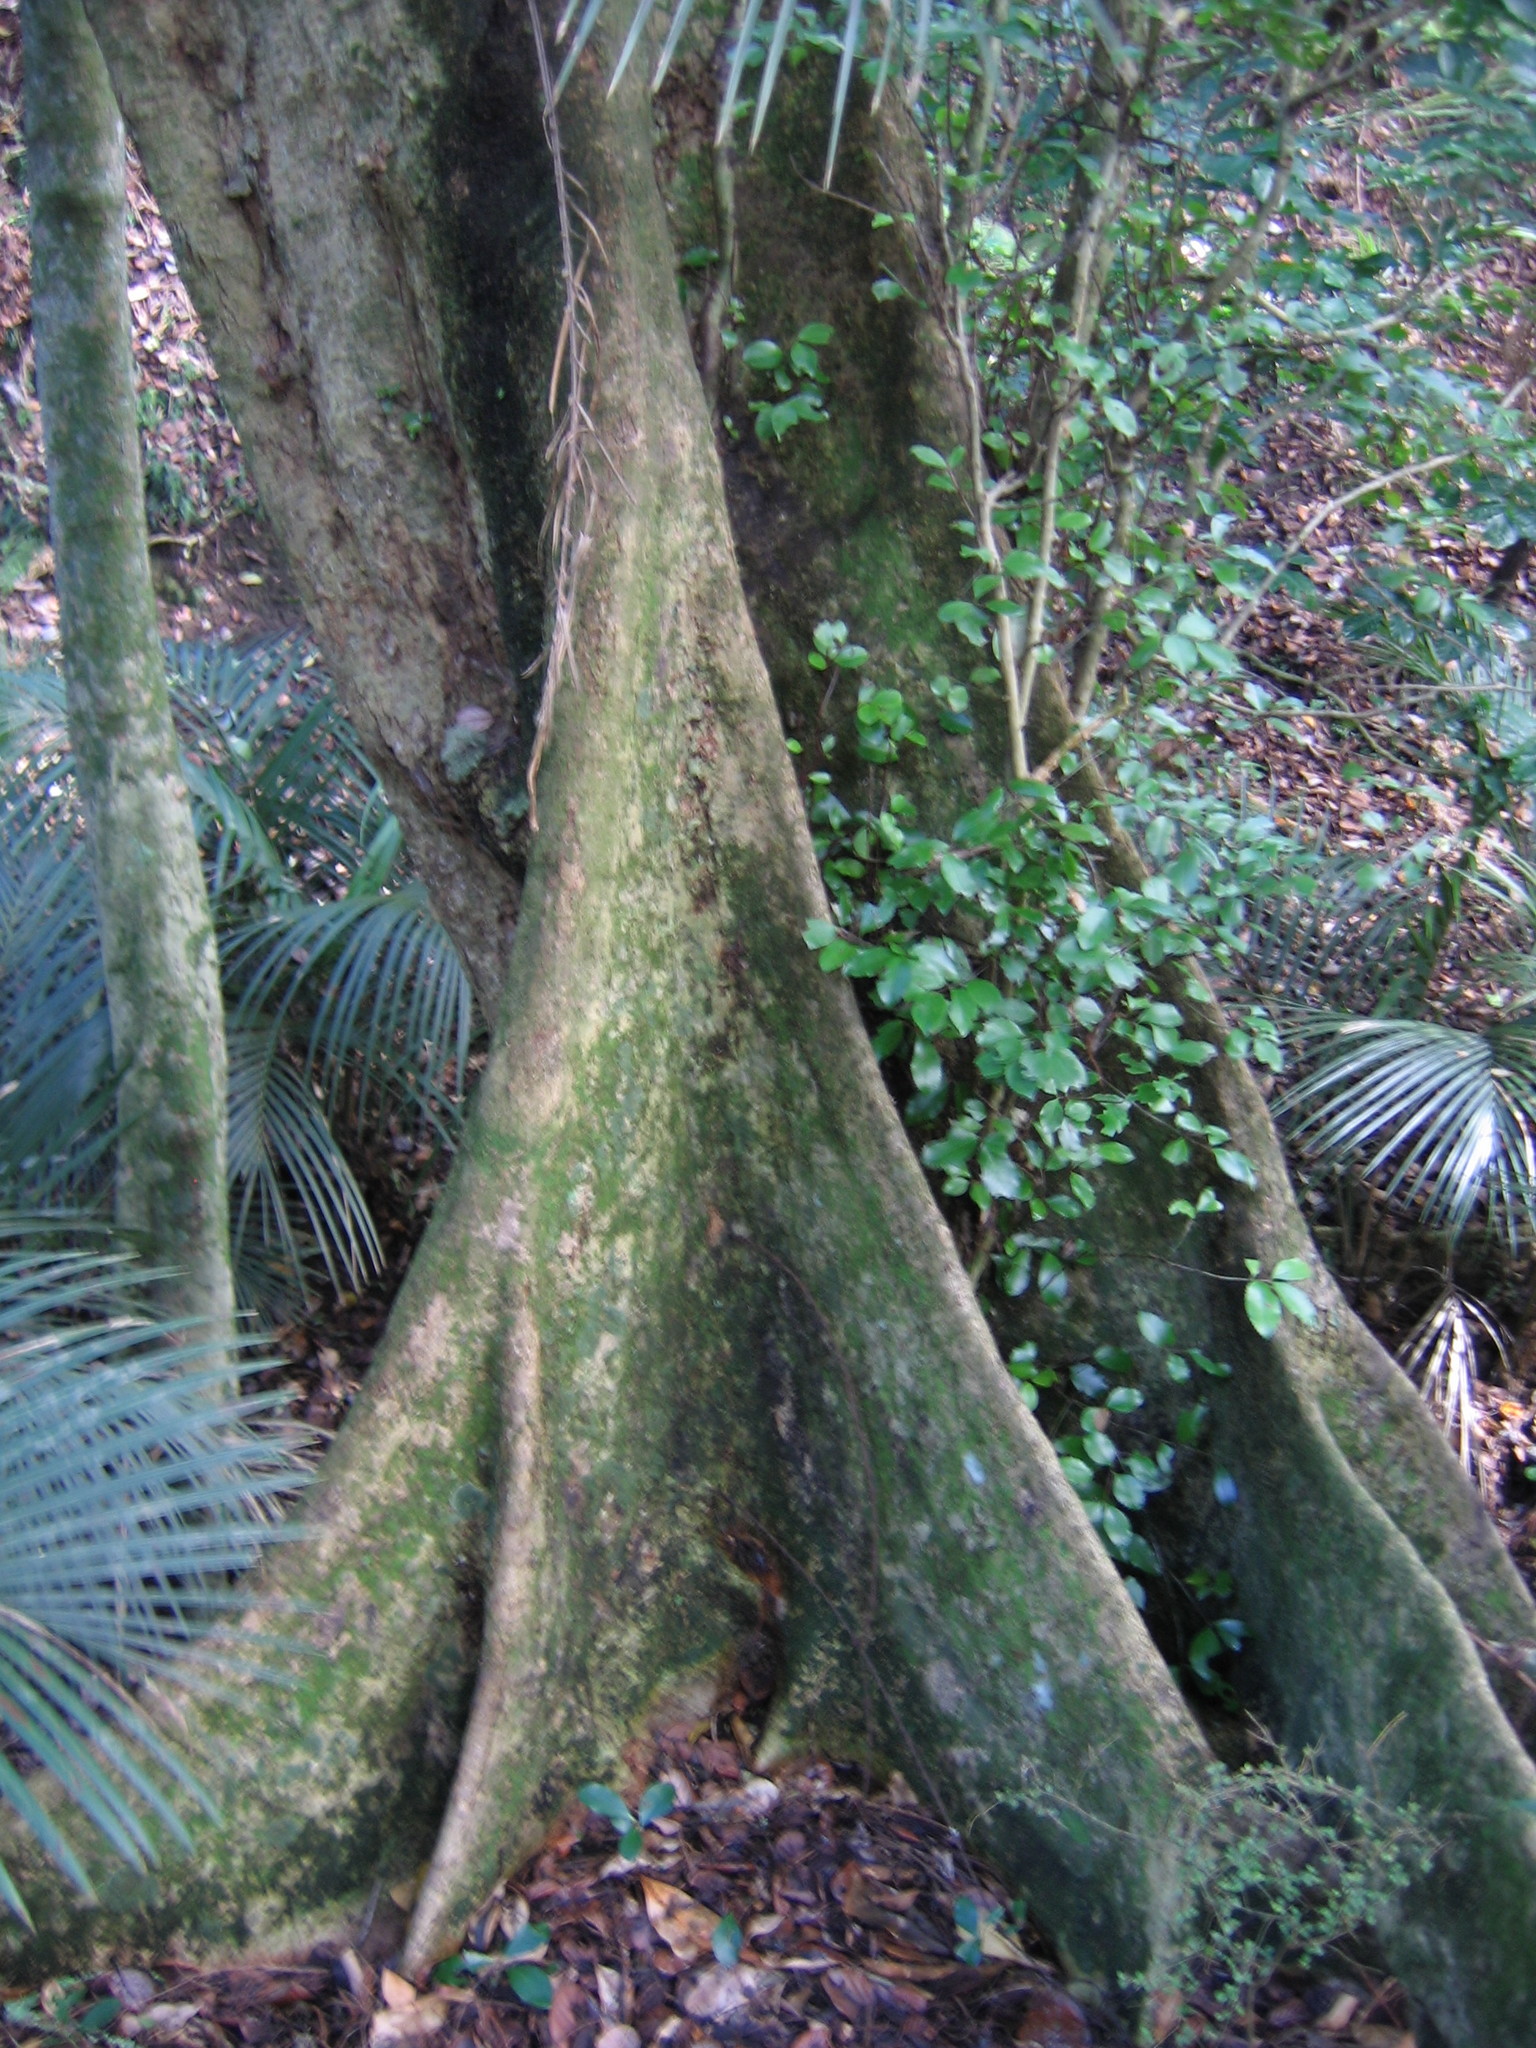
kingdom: Plantae
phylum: Tracheophyta
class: Magnoliopsida
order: Laurales
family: Atherospermataceae
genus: Laurelia
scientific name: Laurelia novae-zelandiae
